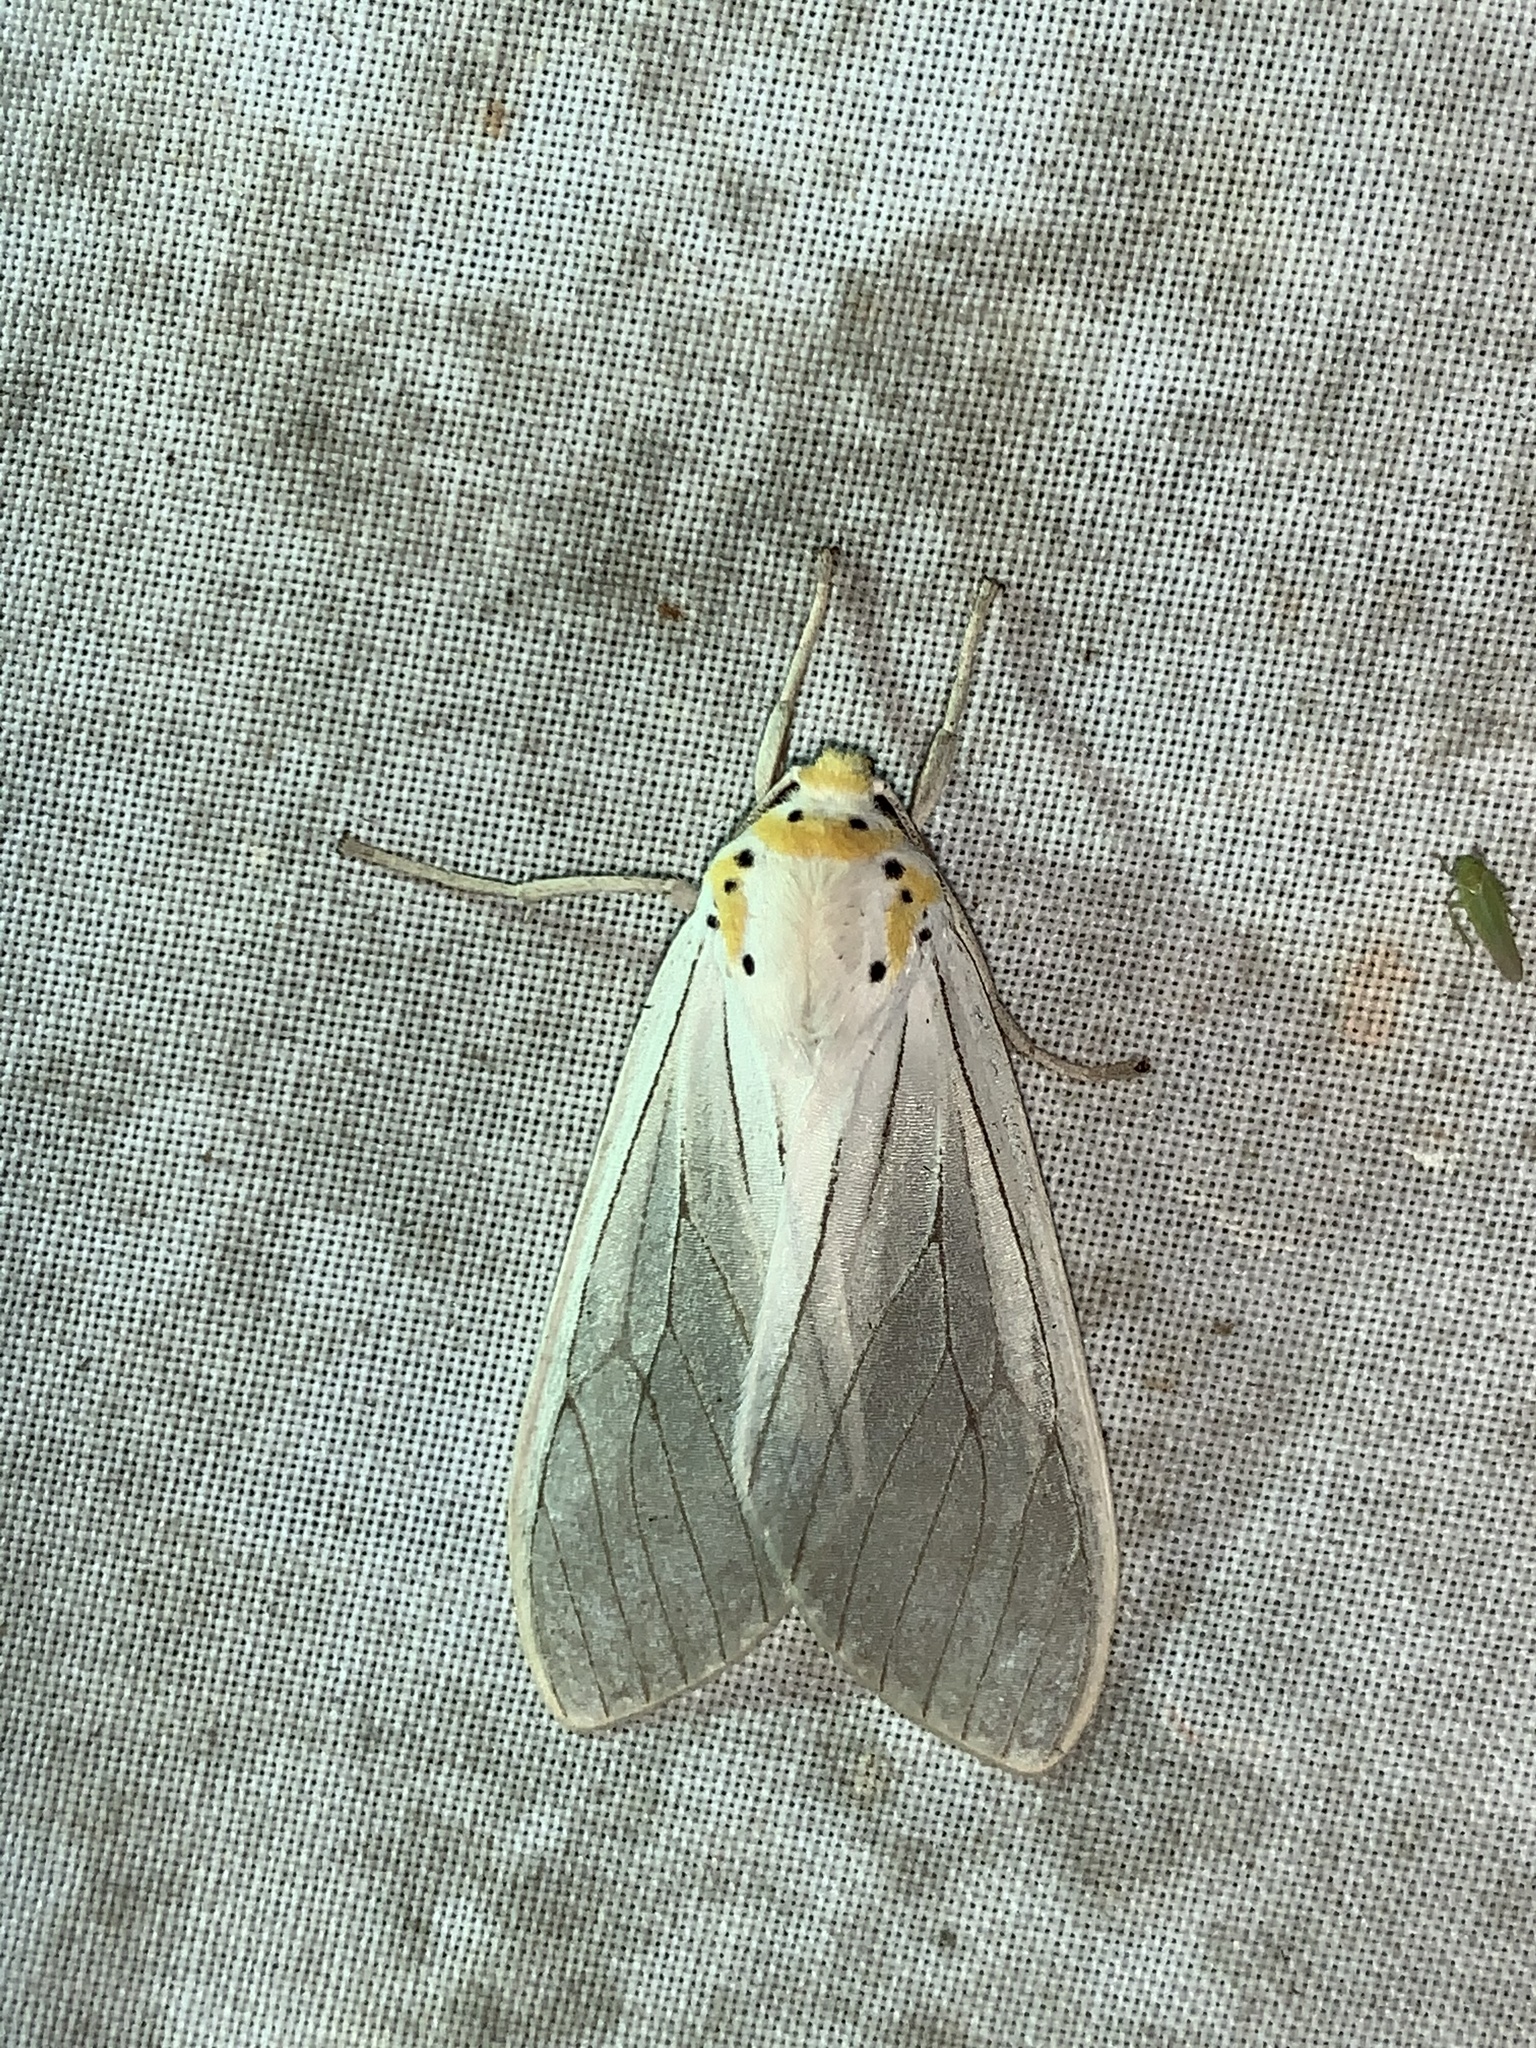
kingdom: Animalia
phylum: Arthropoda
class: Insecta
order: Lepidoptera
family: Erebidae
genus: Pelochyta
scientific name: Pelochyta lapilda
